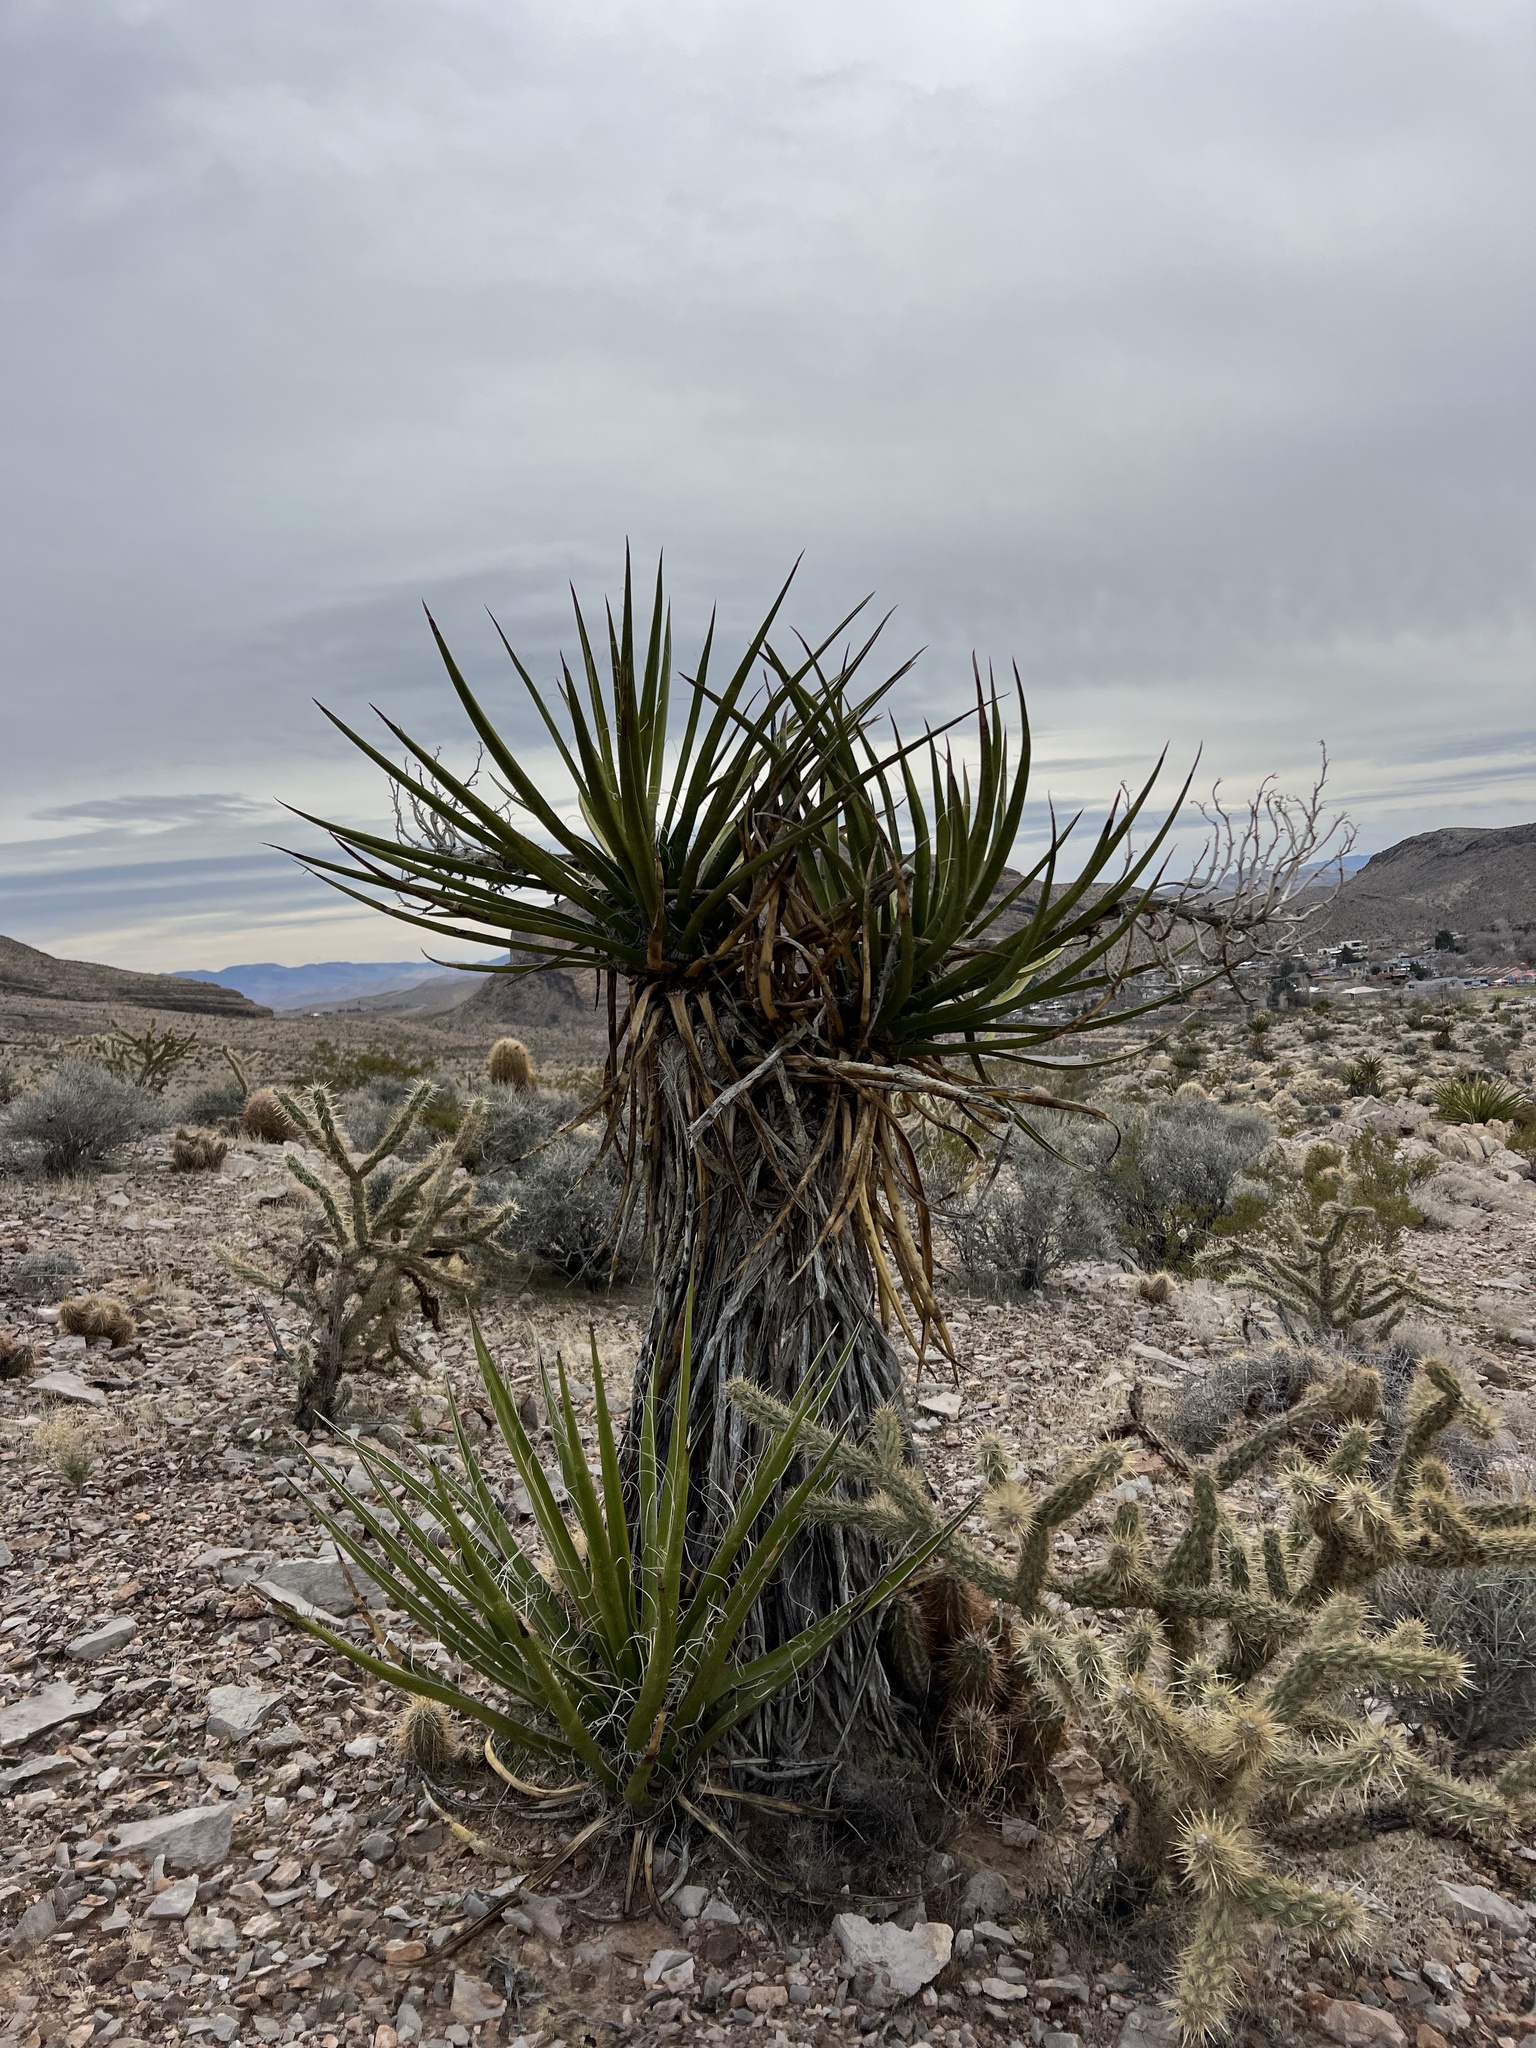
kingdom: Plantae
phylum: Tracheophyta
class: Liliopsida
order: Asparagales
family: Asparagaceae
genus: Yucca
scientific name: Yucca schidigera
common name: Mojave yucca
